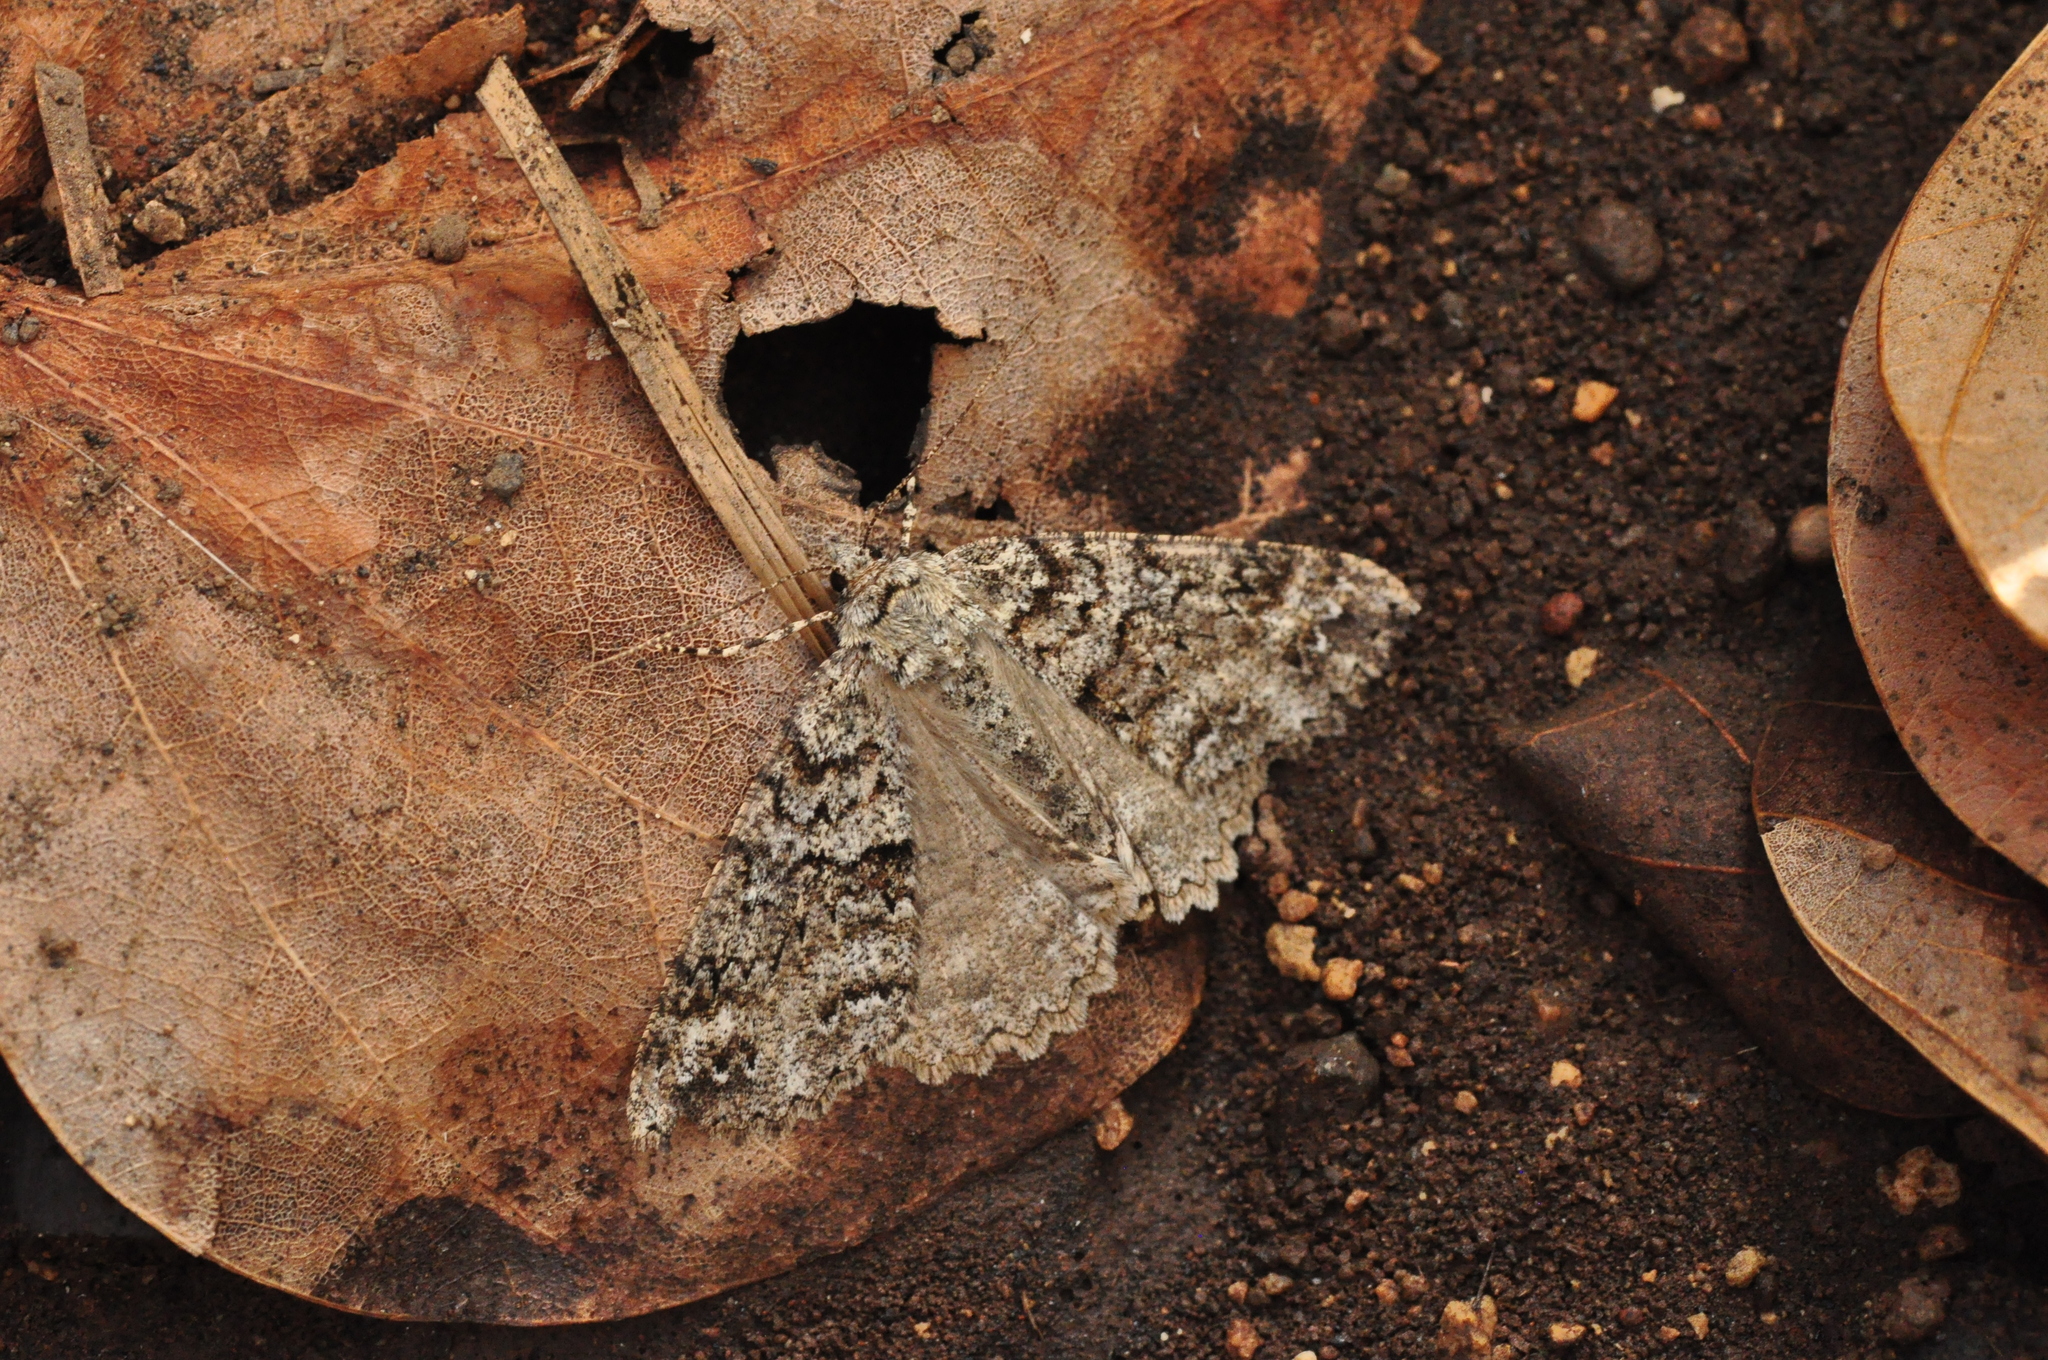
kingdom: Animalia
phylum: Arthropoda
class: Insecta
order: Lepidoptera
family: Geometridae
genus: Ascotis
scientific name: Ascotis fortunata
